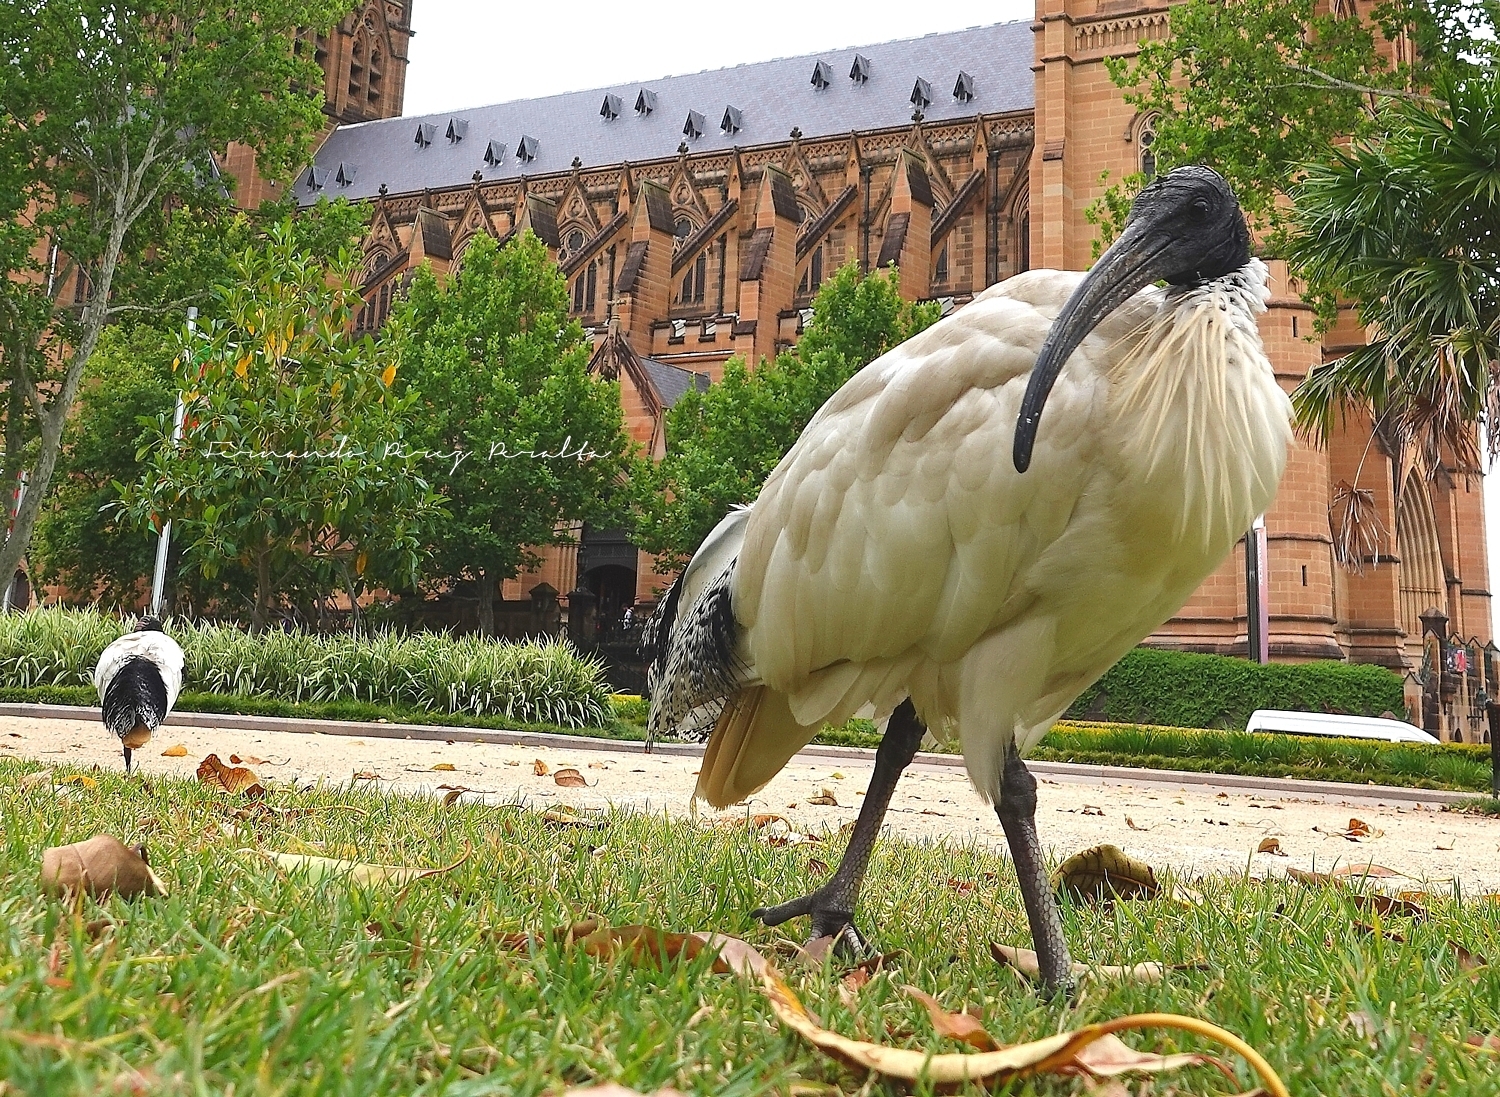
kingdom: Animalia
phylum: Chordata
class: Aves
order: Pelecaniformes
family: Threskiornithidae
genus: Threskiornis
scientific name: Threskiornis molucca
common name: Australian white ibis
